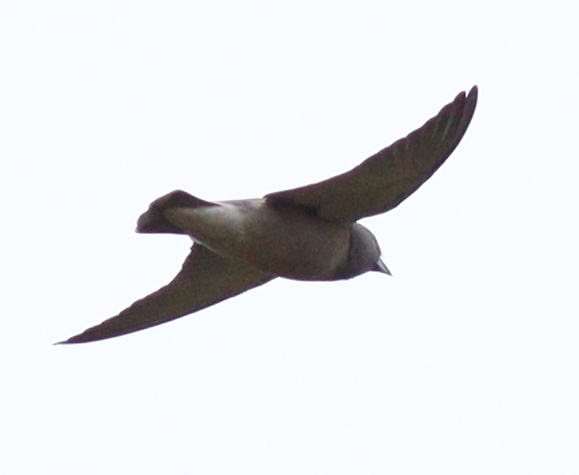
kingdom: Animalia
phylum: Chordata
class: Aves
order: Passeriformes
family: Artamidae
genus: Artamus
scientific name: Artamus fuscus
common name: Ashy woodswallow
